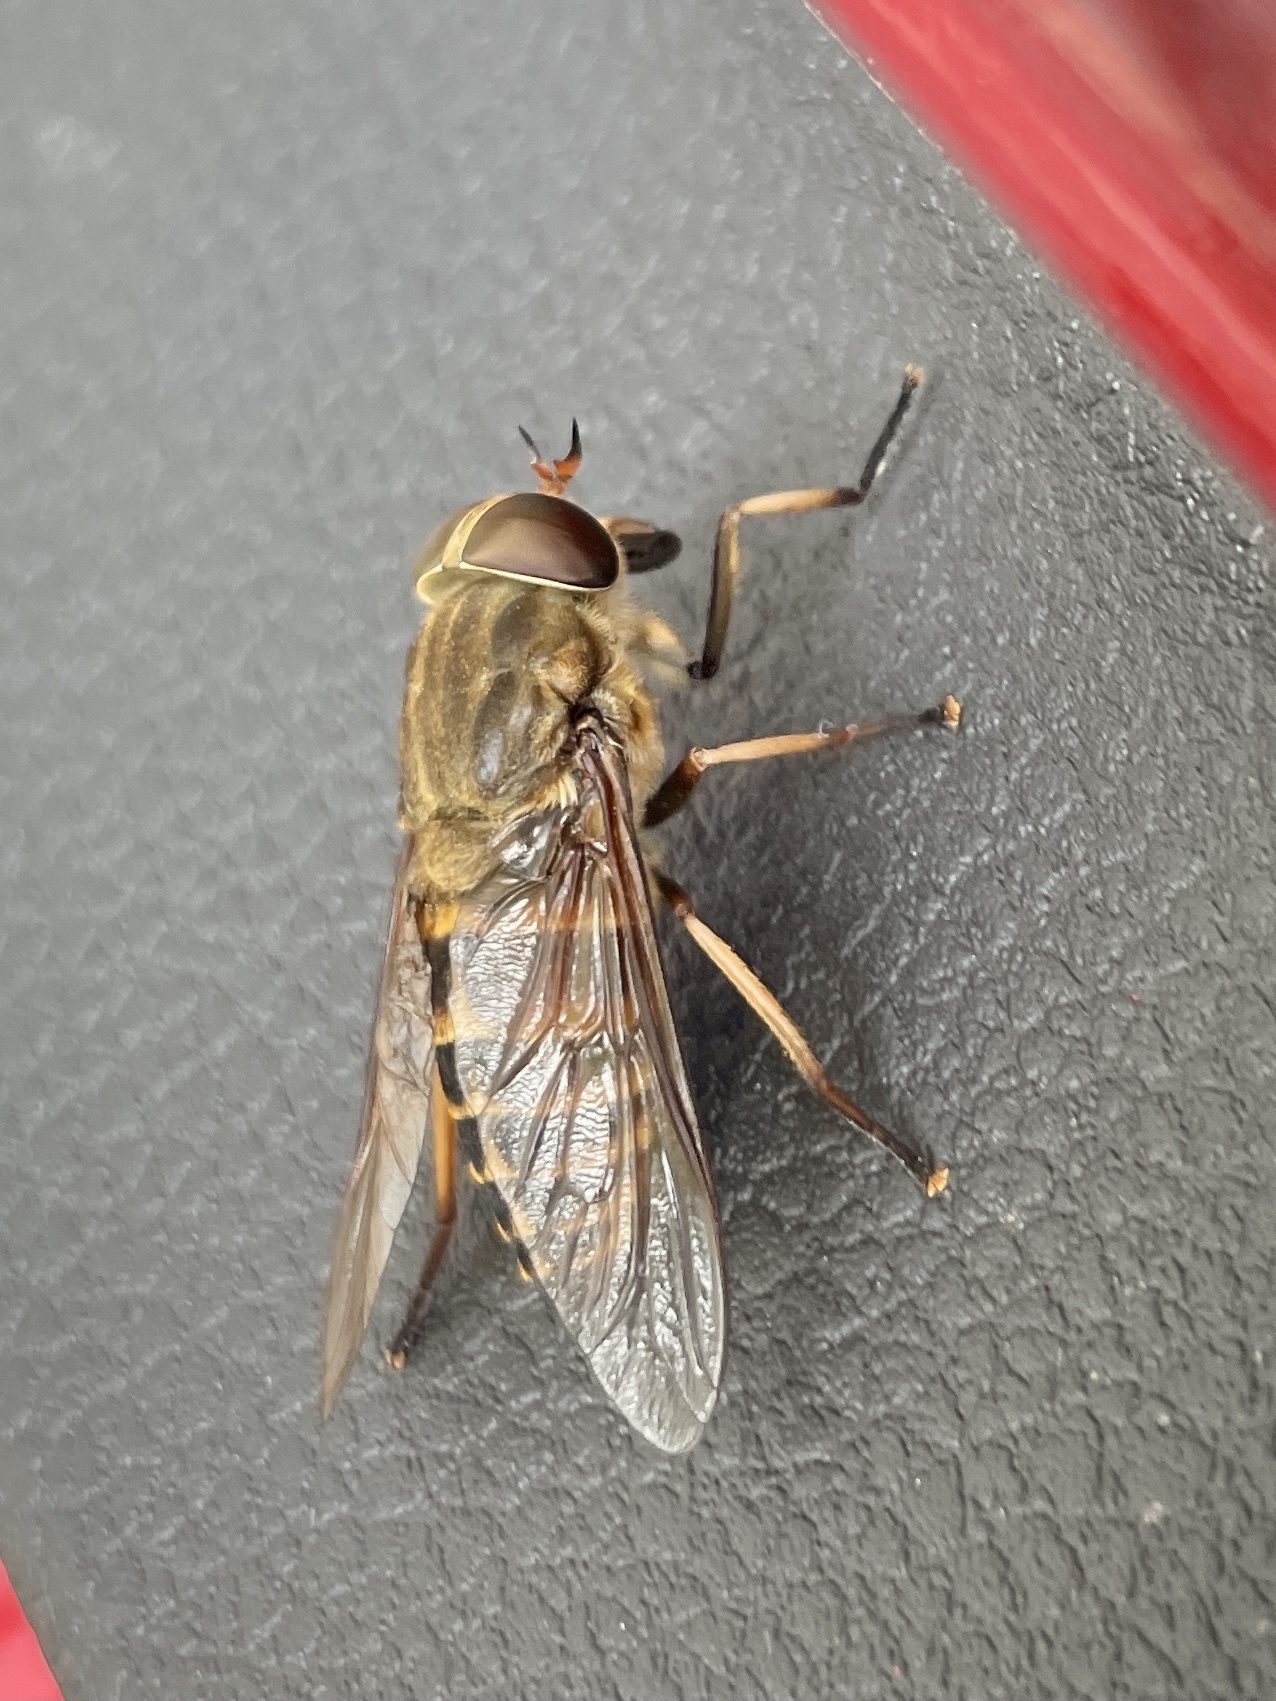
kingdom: Animalia
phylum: Arthropoda
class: Insecta
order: Diptera
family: Tabanidae
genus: Tabanus
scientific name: Tabanus sudeticus
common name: Dark giant horsefly
